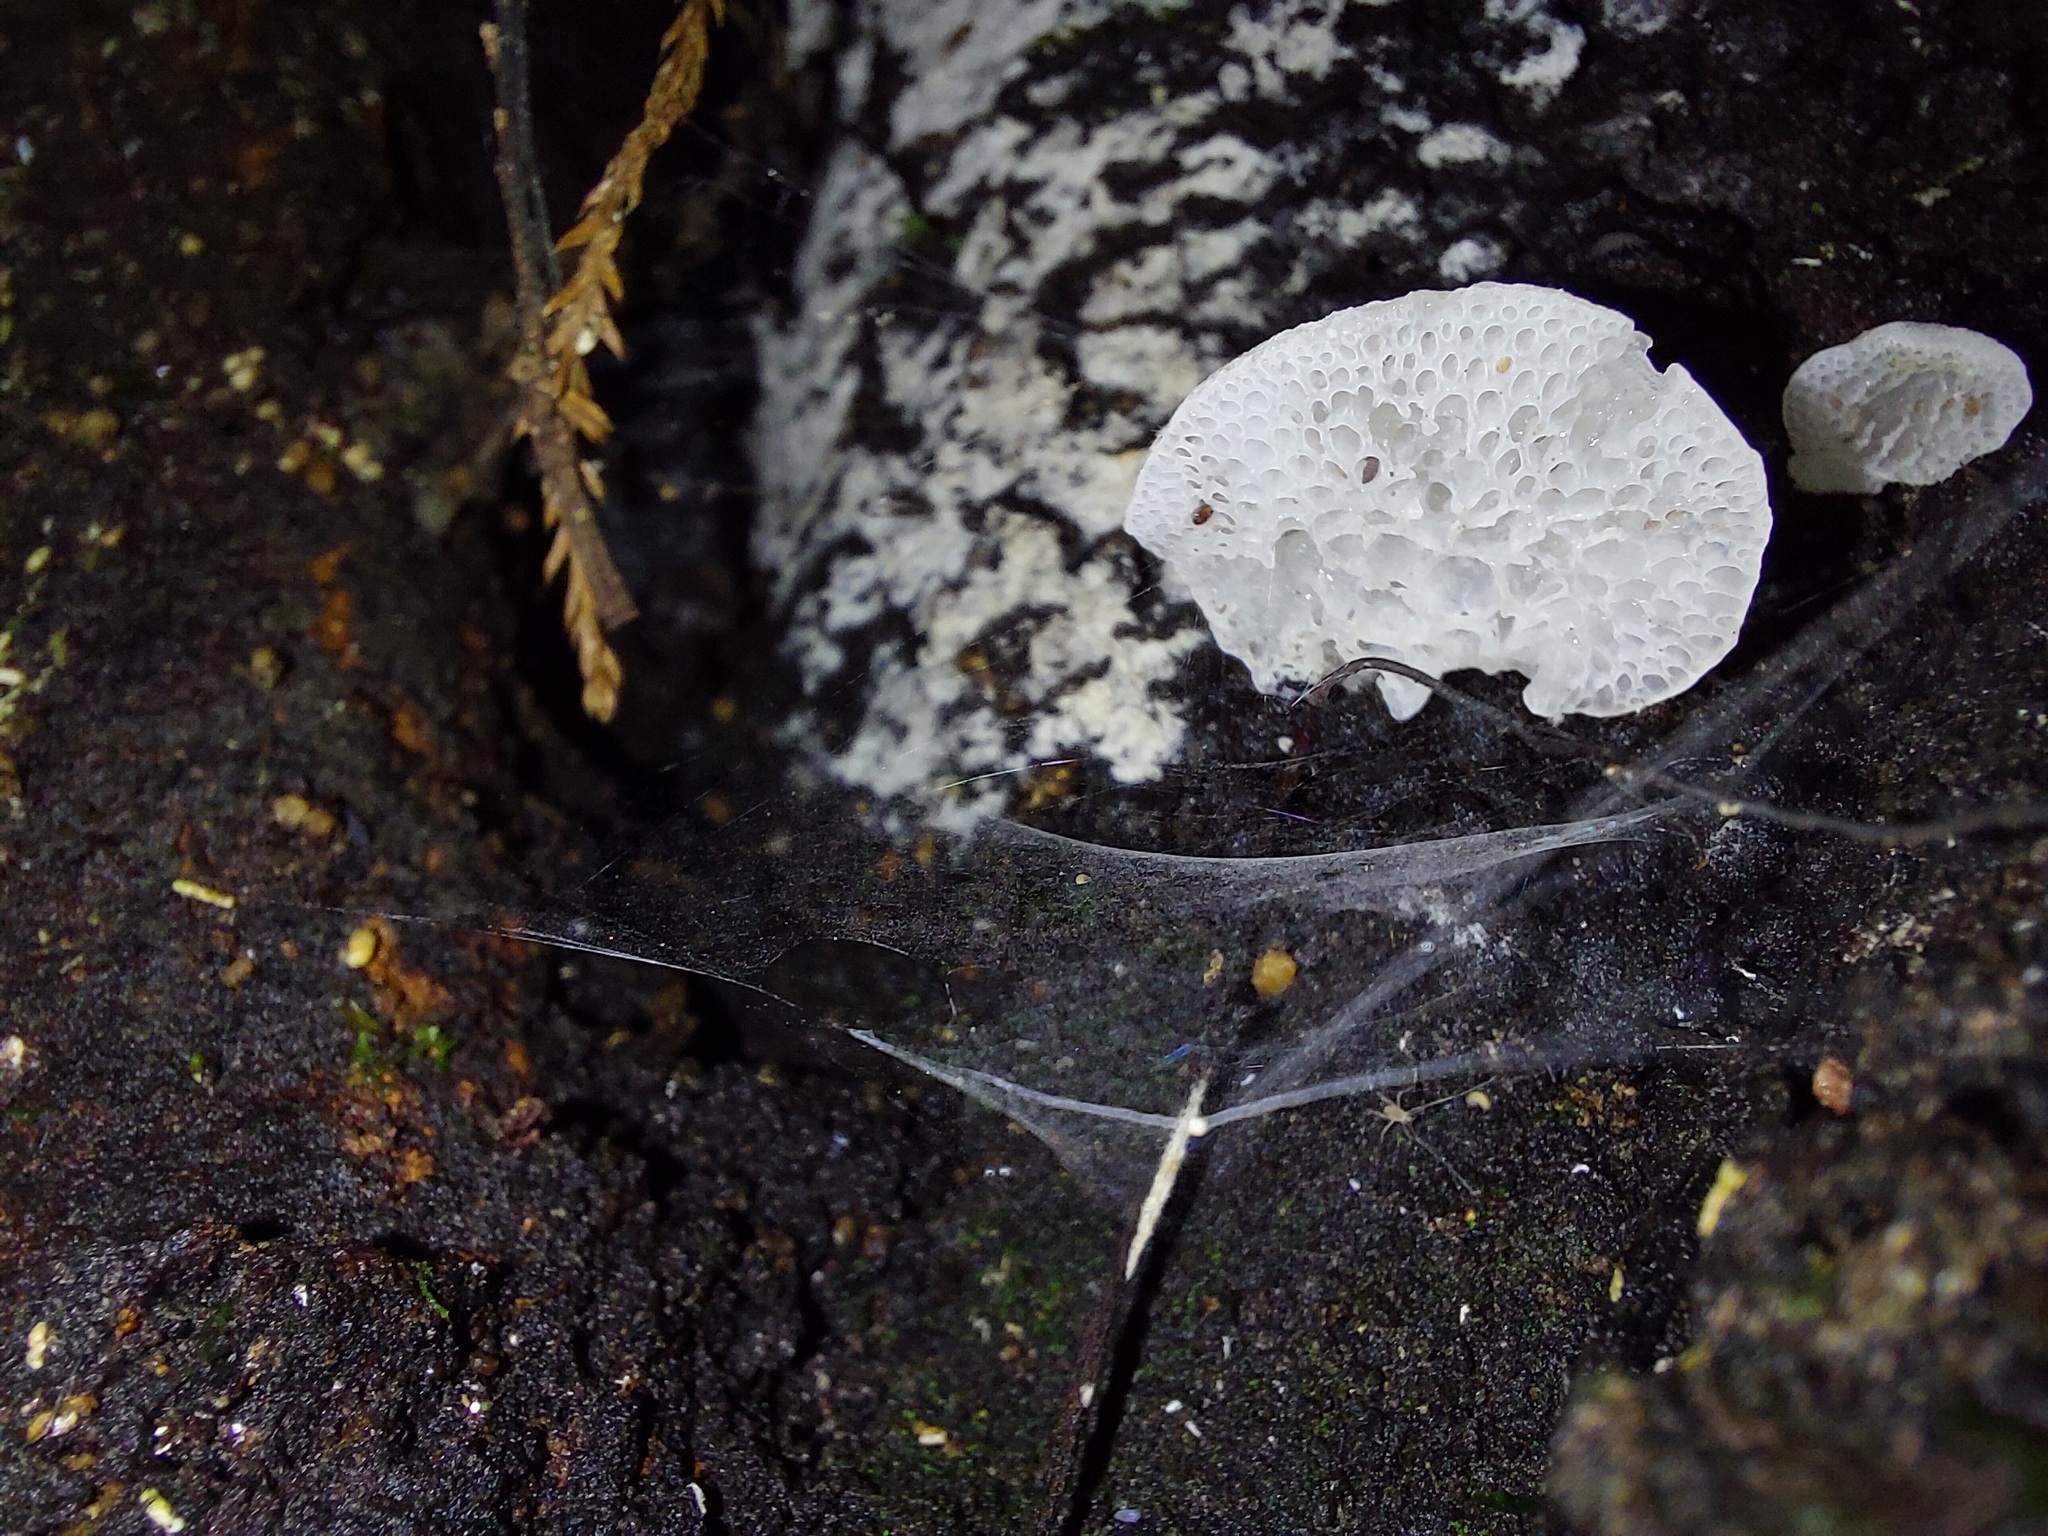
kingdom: Fungi
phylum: Basidiomycota
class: Agaricomycetes
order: Agaricales
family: Mycenaceae
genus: Favolaschia
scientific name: Favolaschia pustulosa
